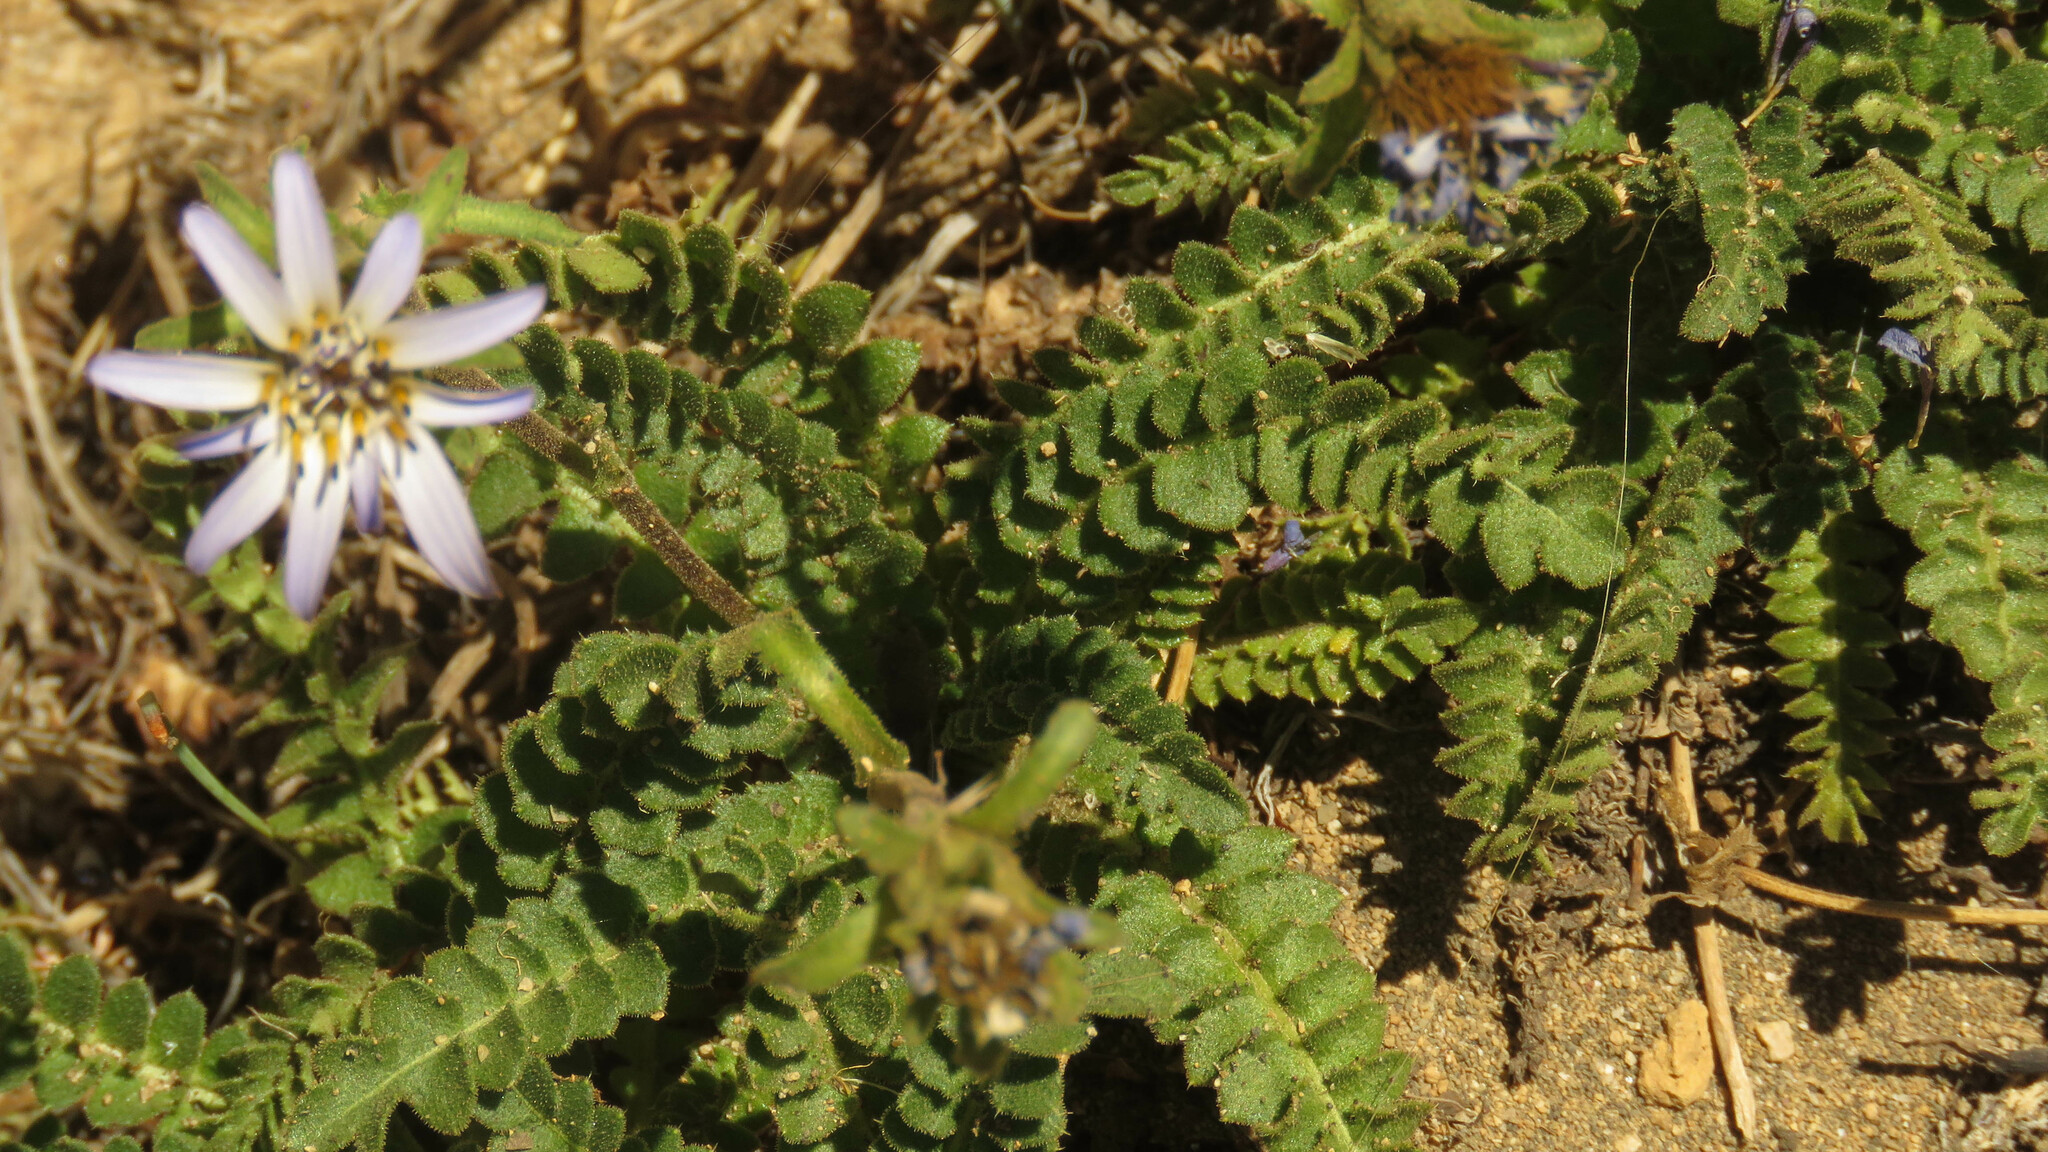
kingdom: Plantae
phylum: Tracheophyta
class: Magnoliopsida
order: Asterales
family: Asteraceae
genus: Perezia
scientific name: Perezia fonckii
